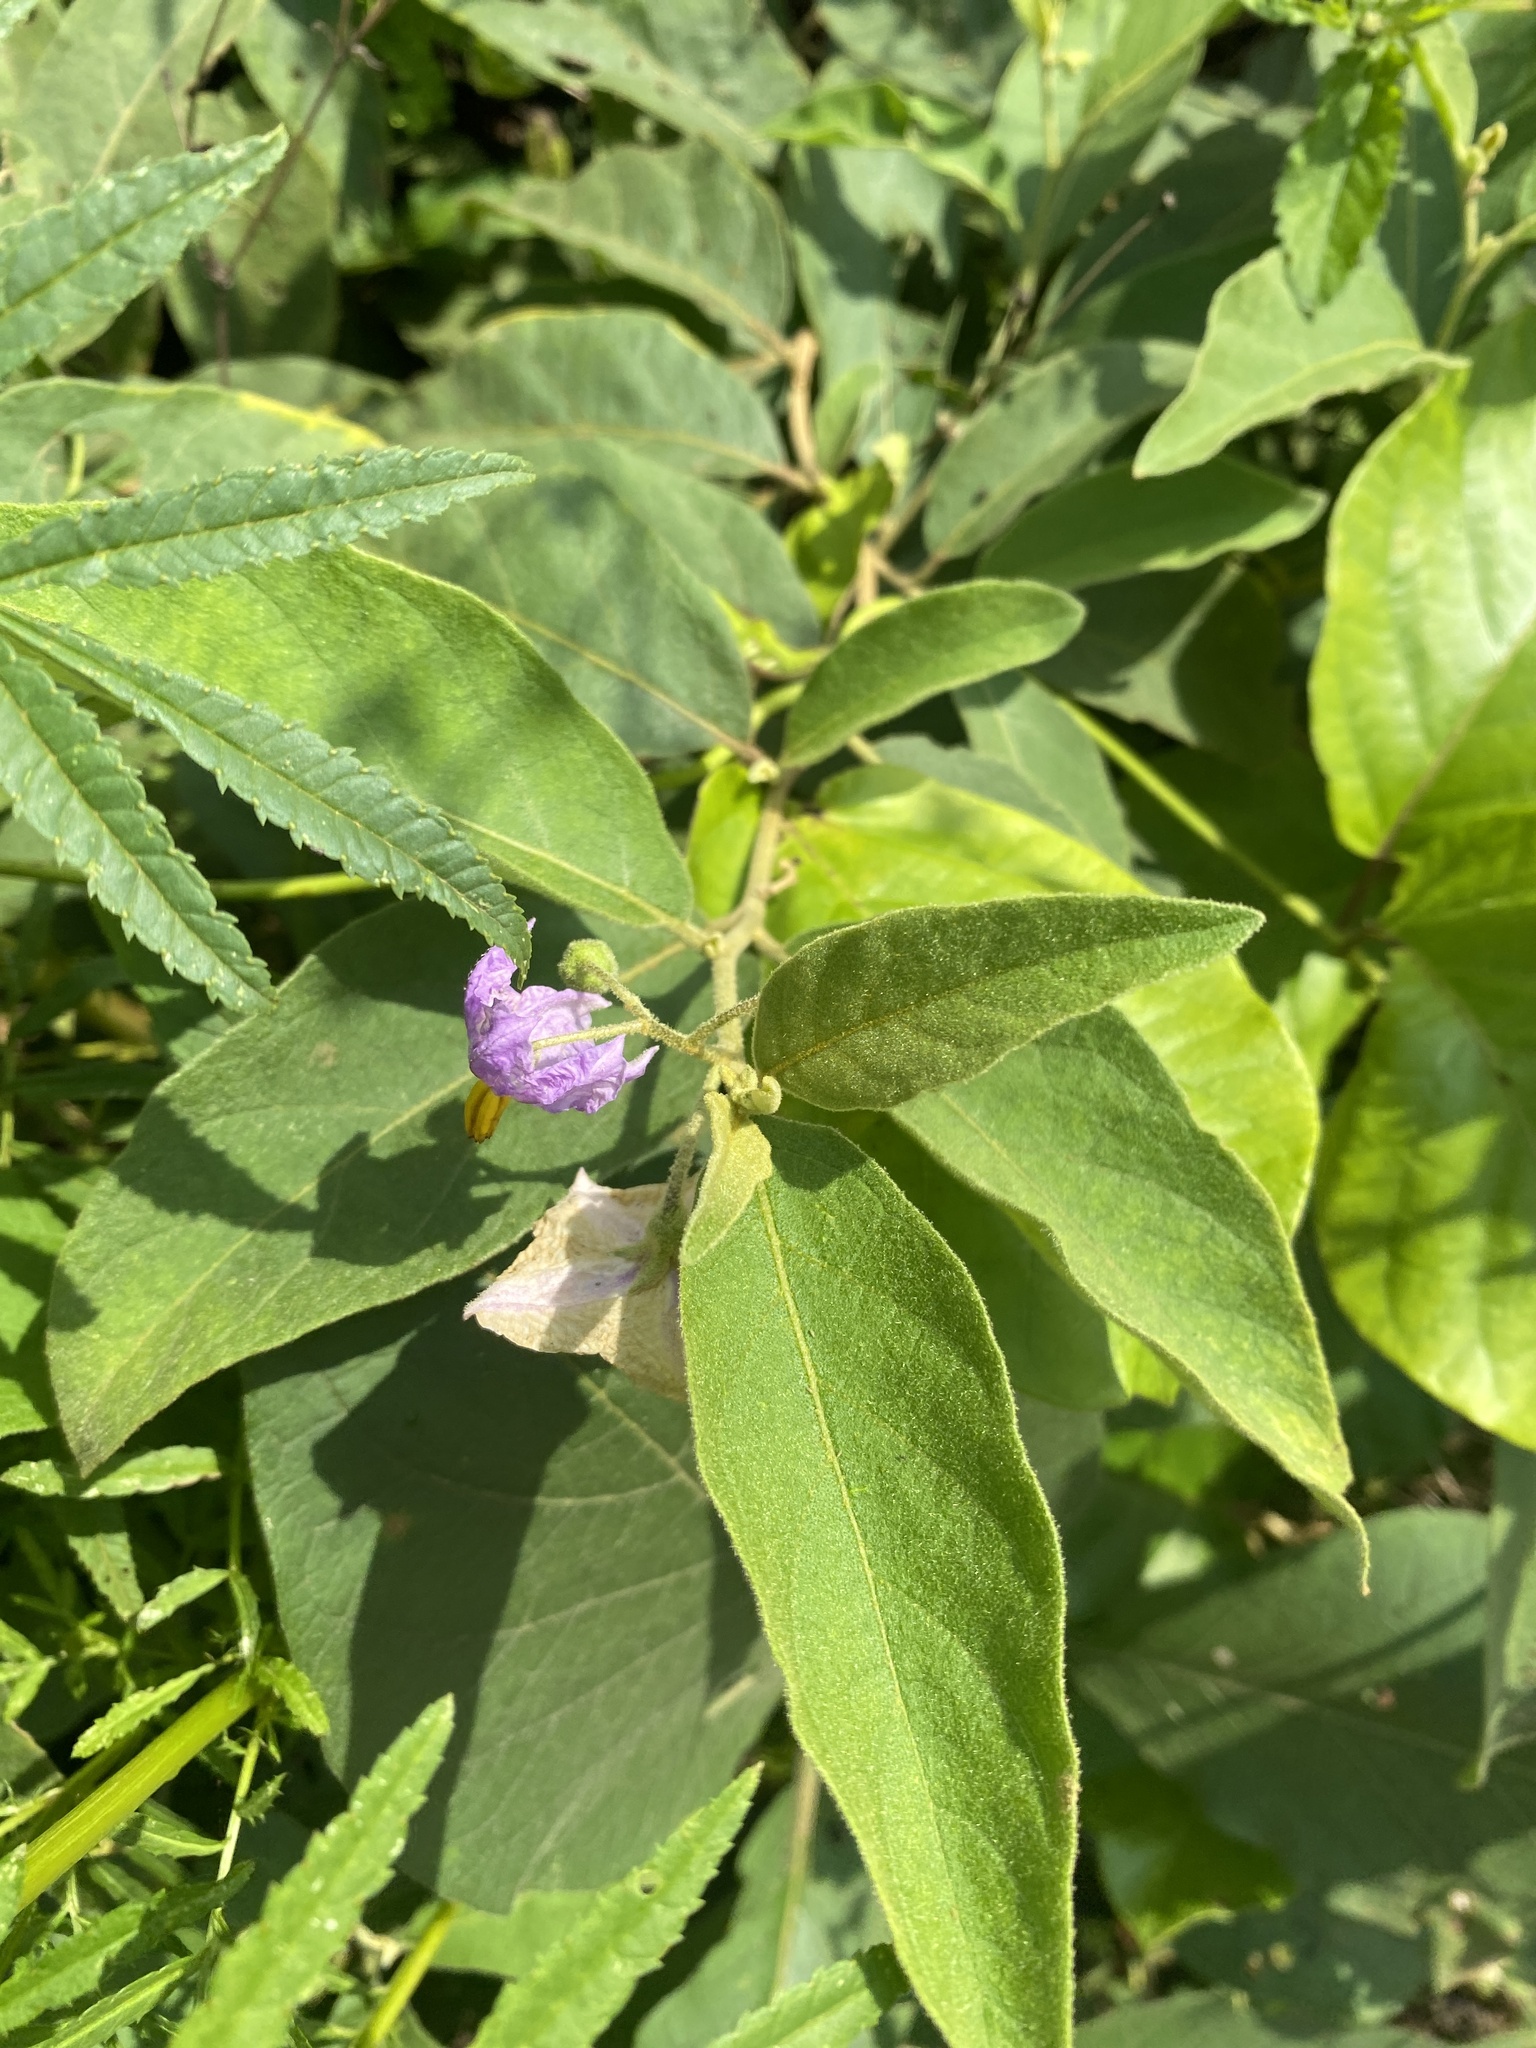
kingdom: Plantae
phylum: Tracheophyta
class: Magnoliopsida
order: Solanales
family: Solanaceae
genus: Solanum
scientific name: Solanum campylacanthum
